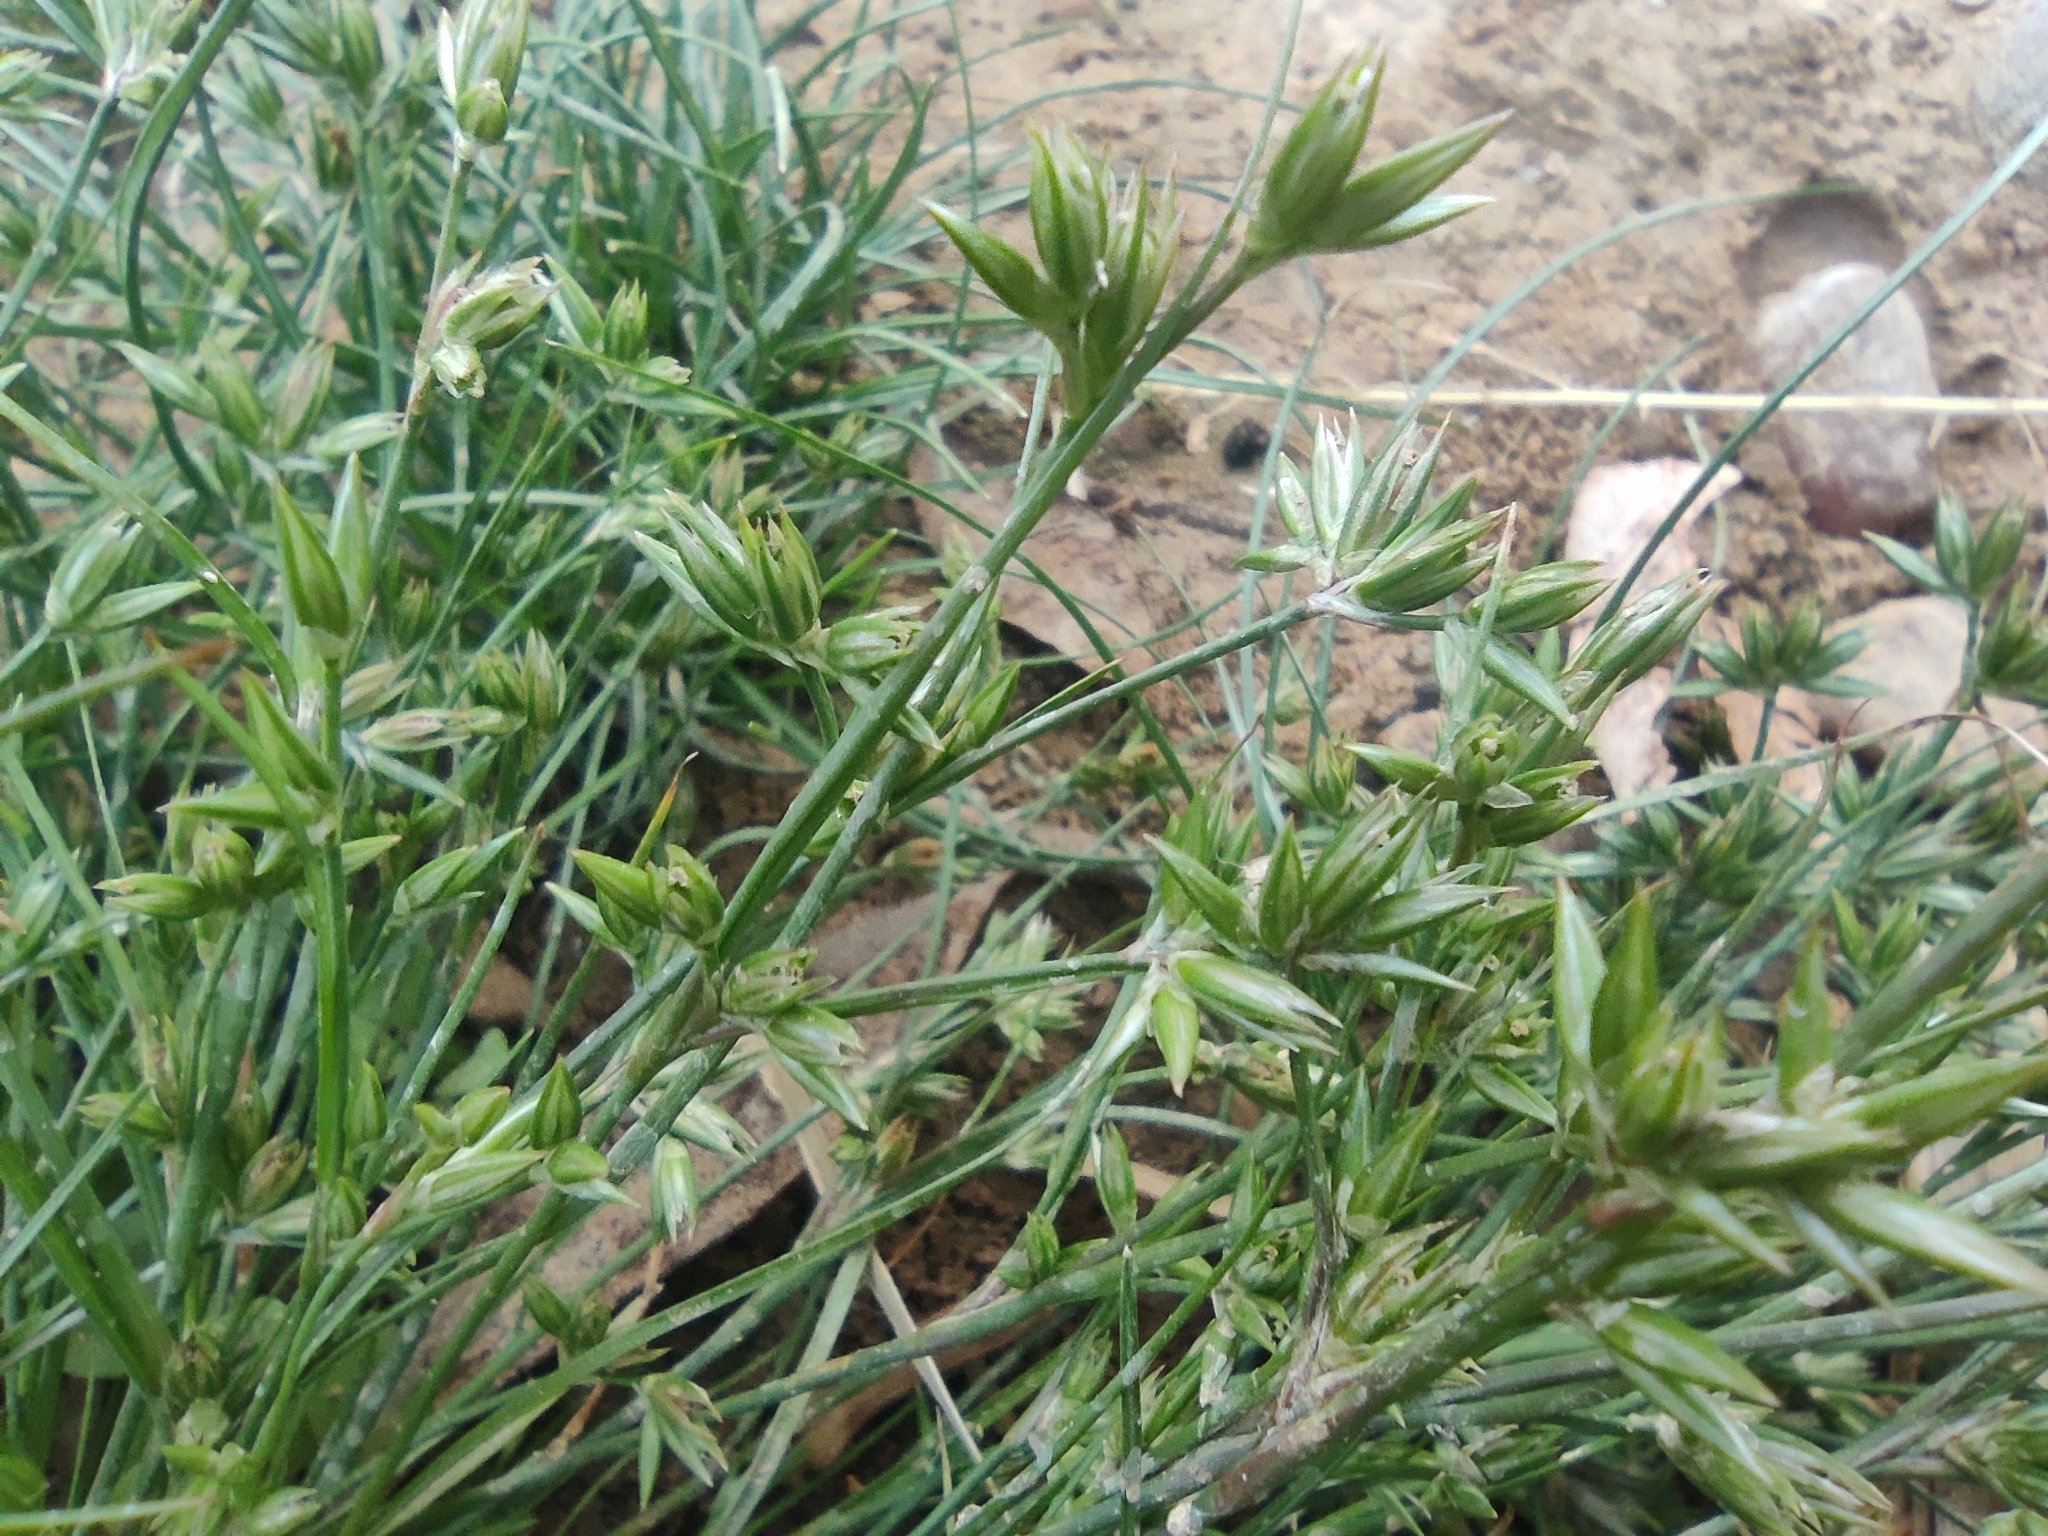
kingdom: Plantae
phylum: Tracheophyta
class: Liliopsida
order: Poales
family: Juncaceae
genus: Juncus
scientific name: Juncus hybridus
